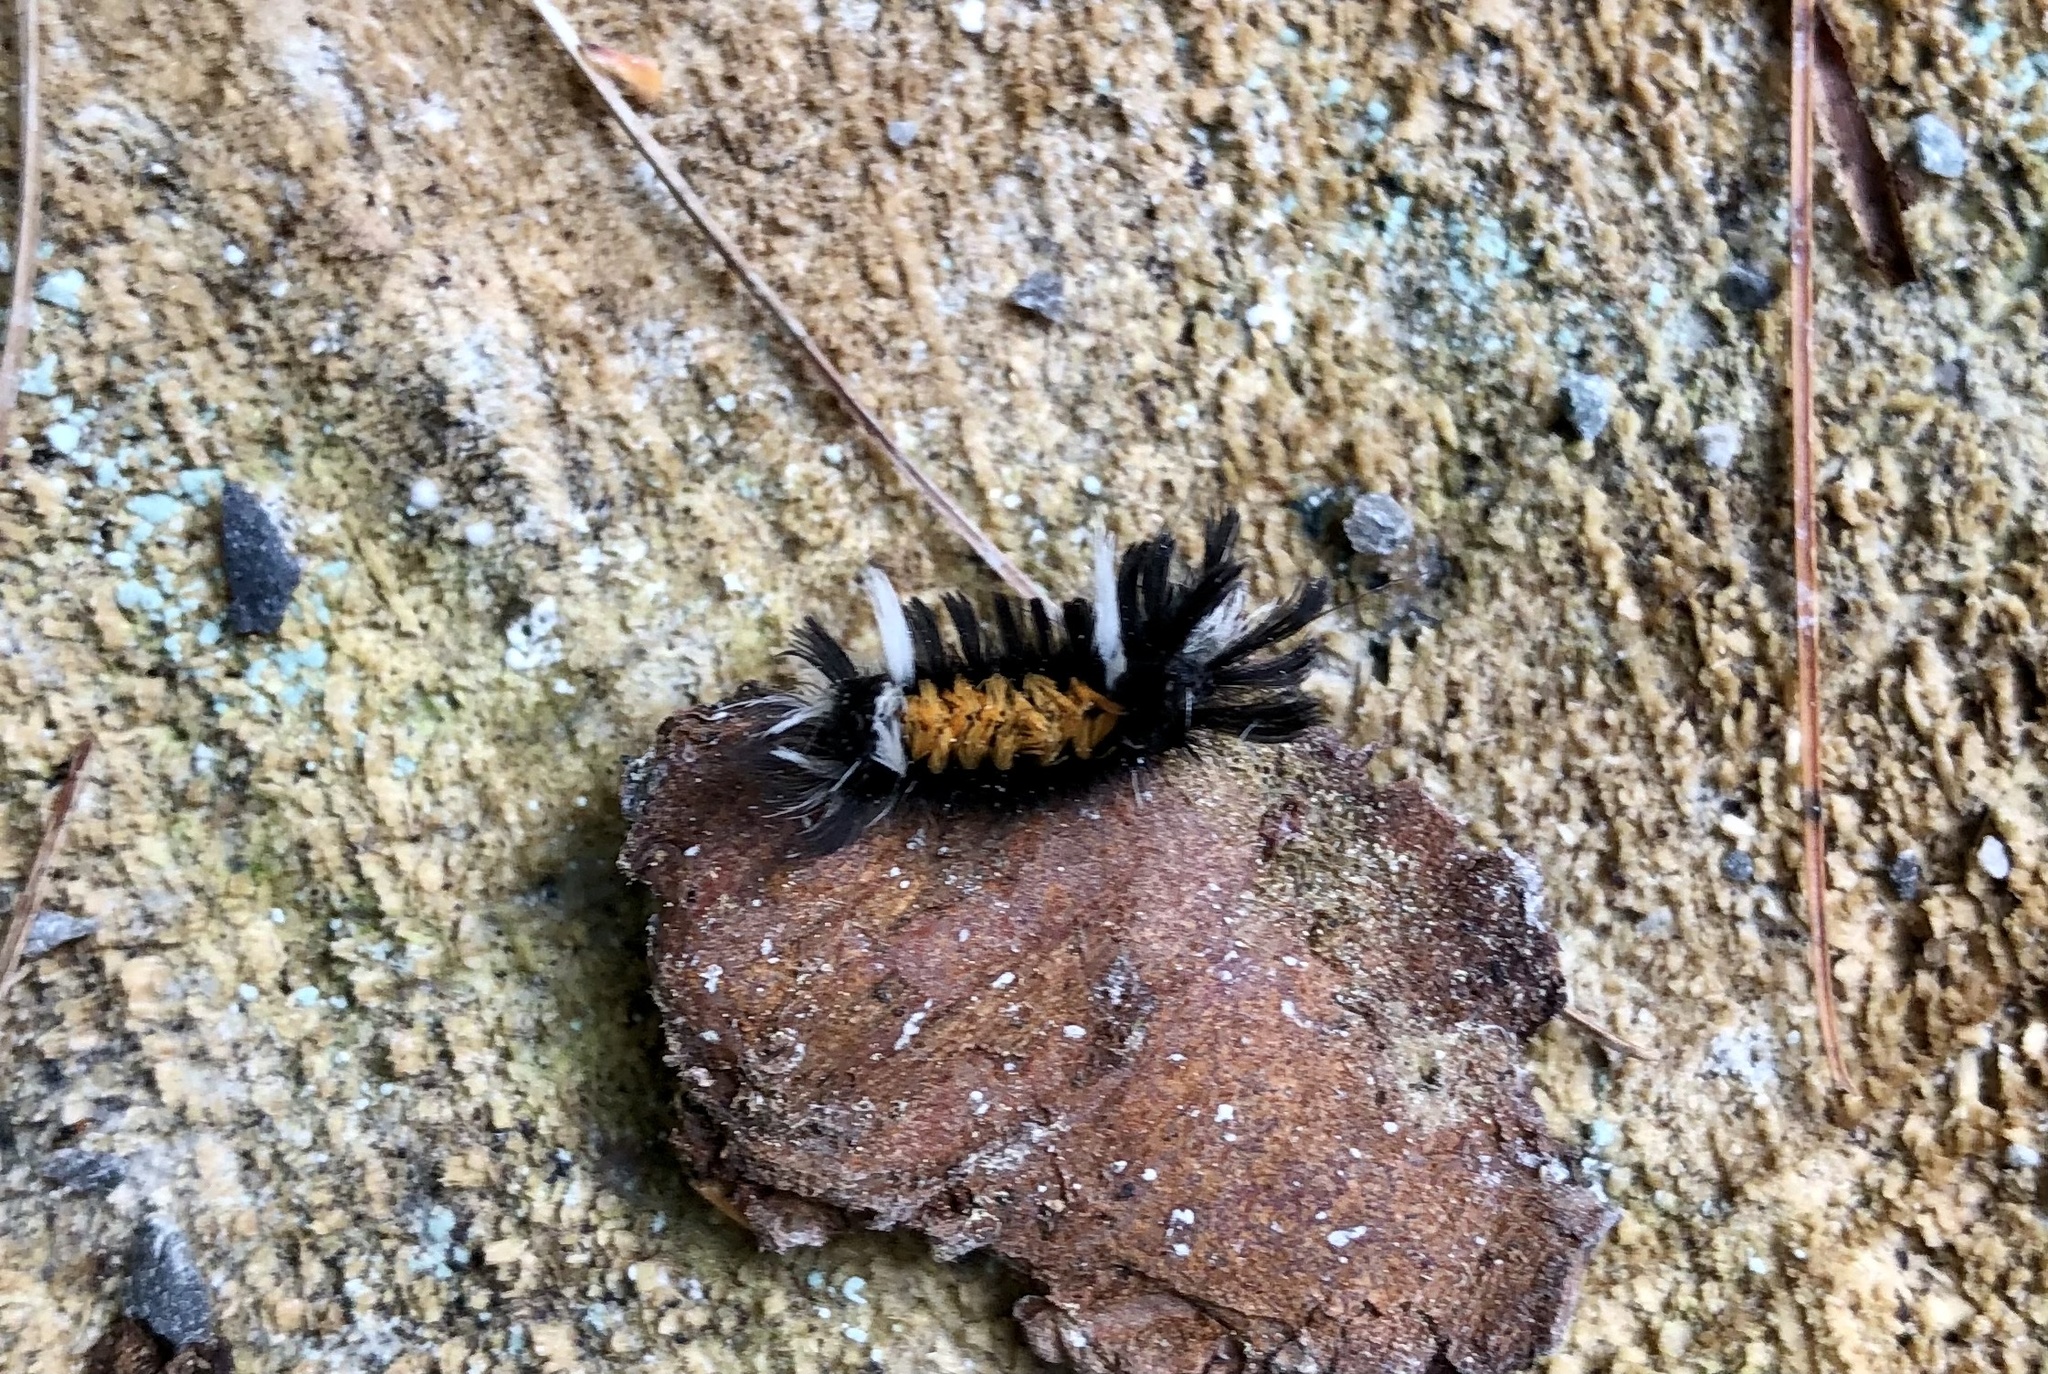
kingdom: Animalia
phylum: Arthropoda
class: Insecta
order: Lepidoptera
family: Erebidae
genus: Euchaetes
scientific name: Euchaetes egle
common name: Milkweed tussock moth
